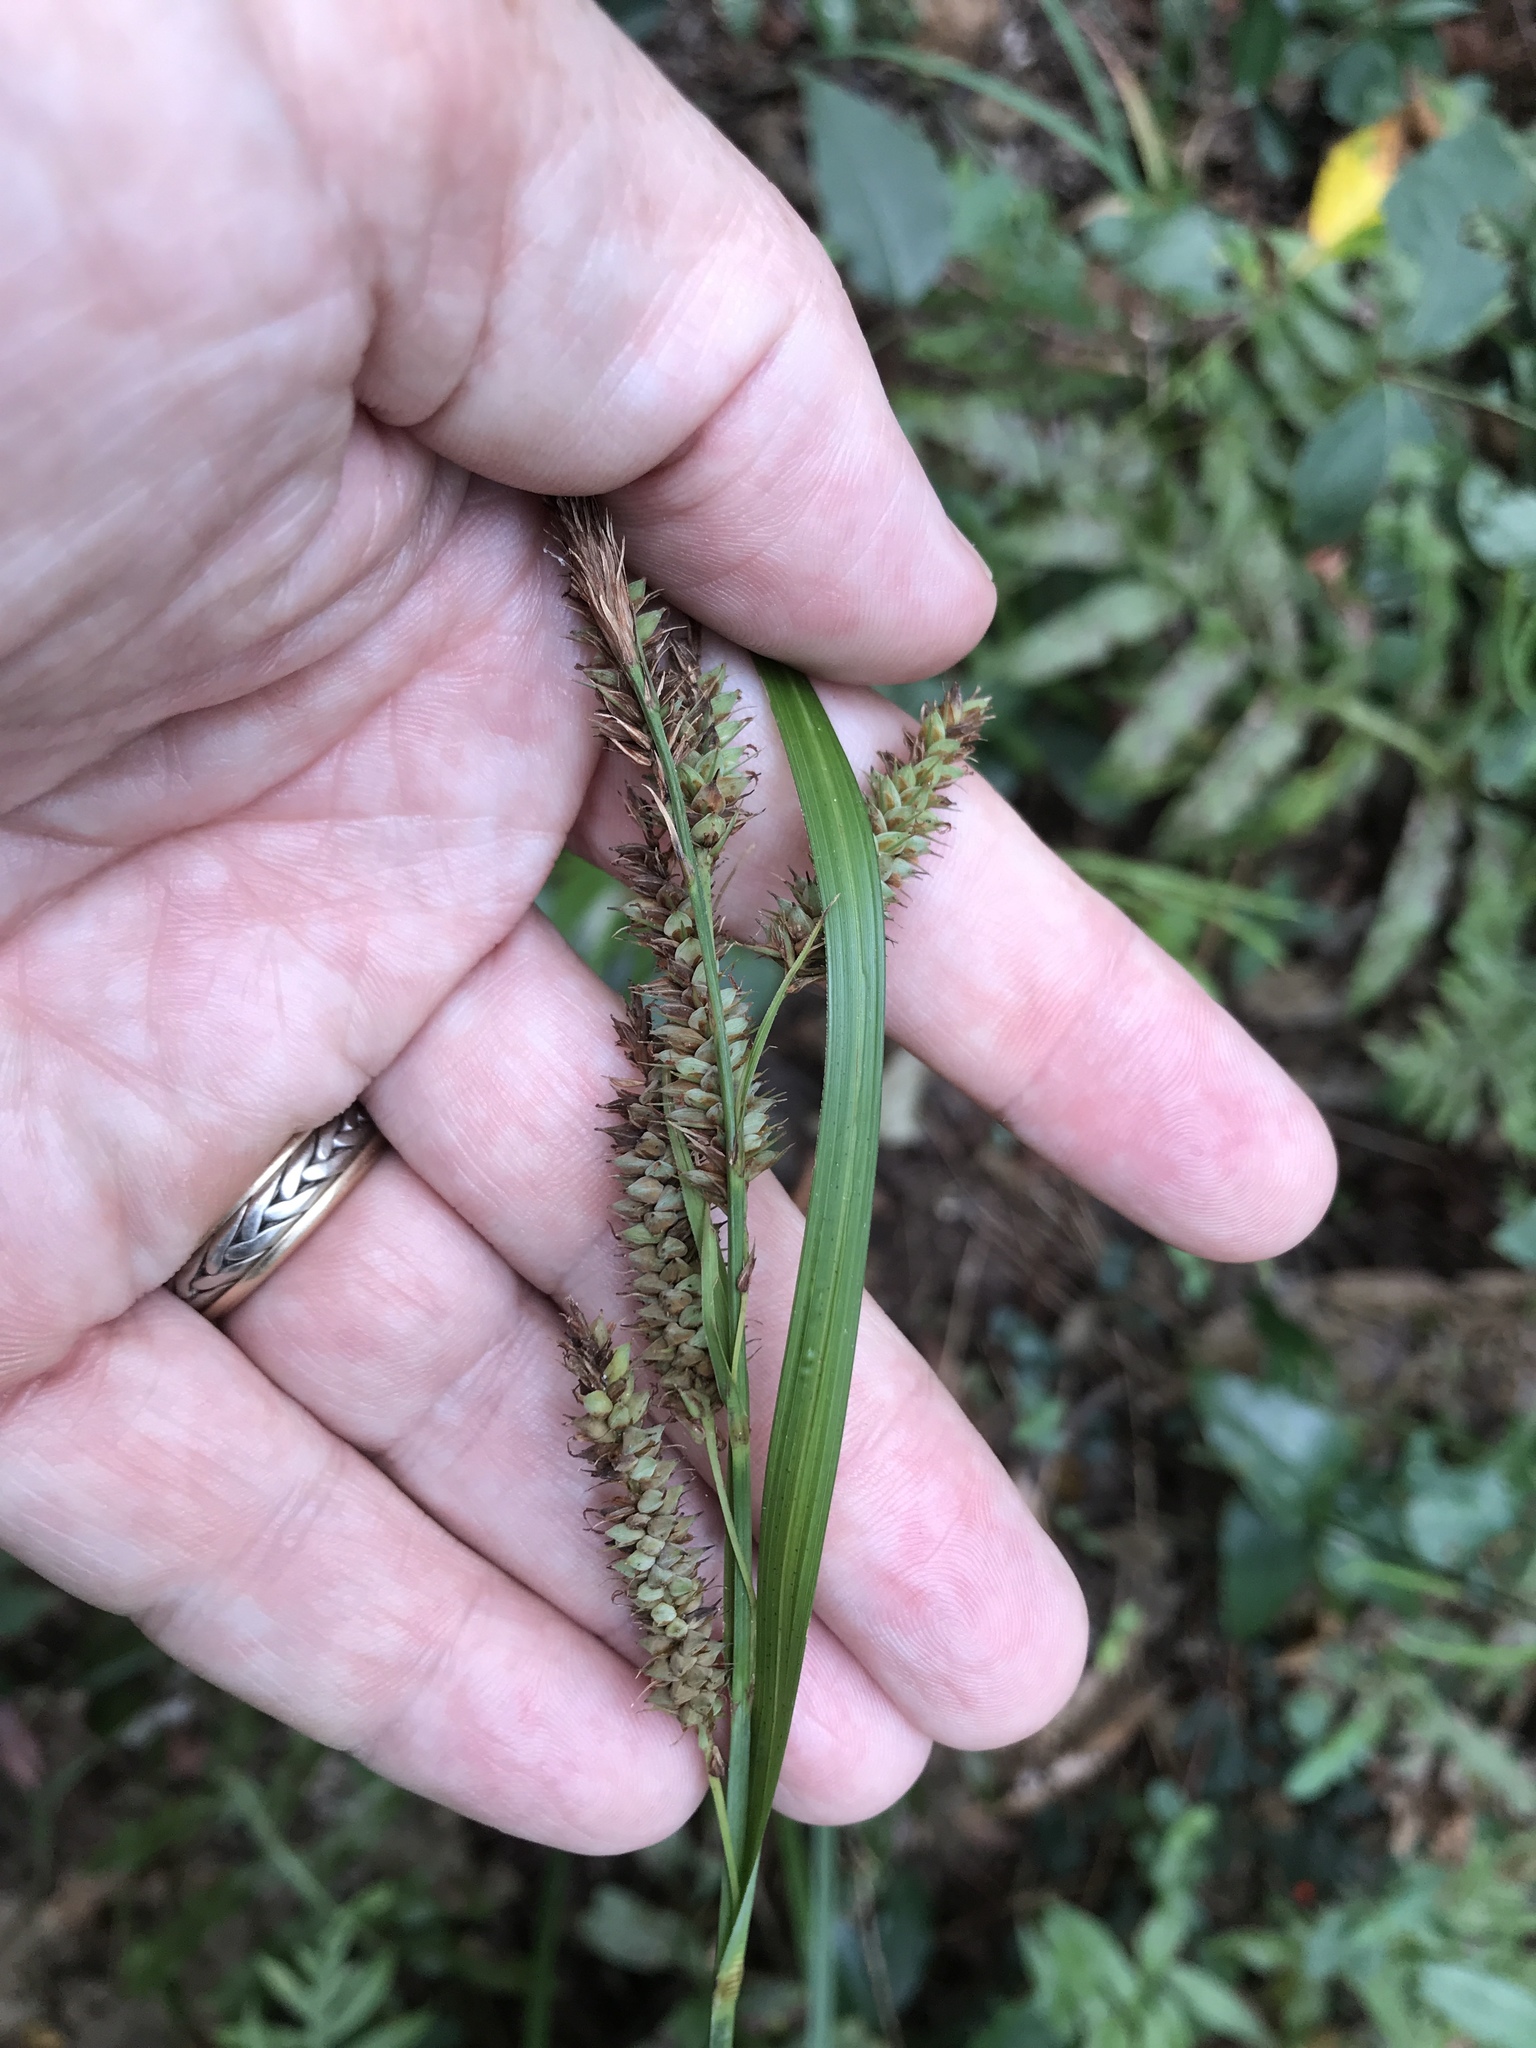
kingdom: Plantae
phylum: Tracheophyta
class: Liliopsida
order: Poales
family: Cyperaceae
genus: Carex
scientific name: Carex glaucescens
